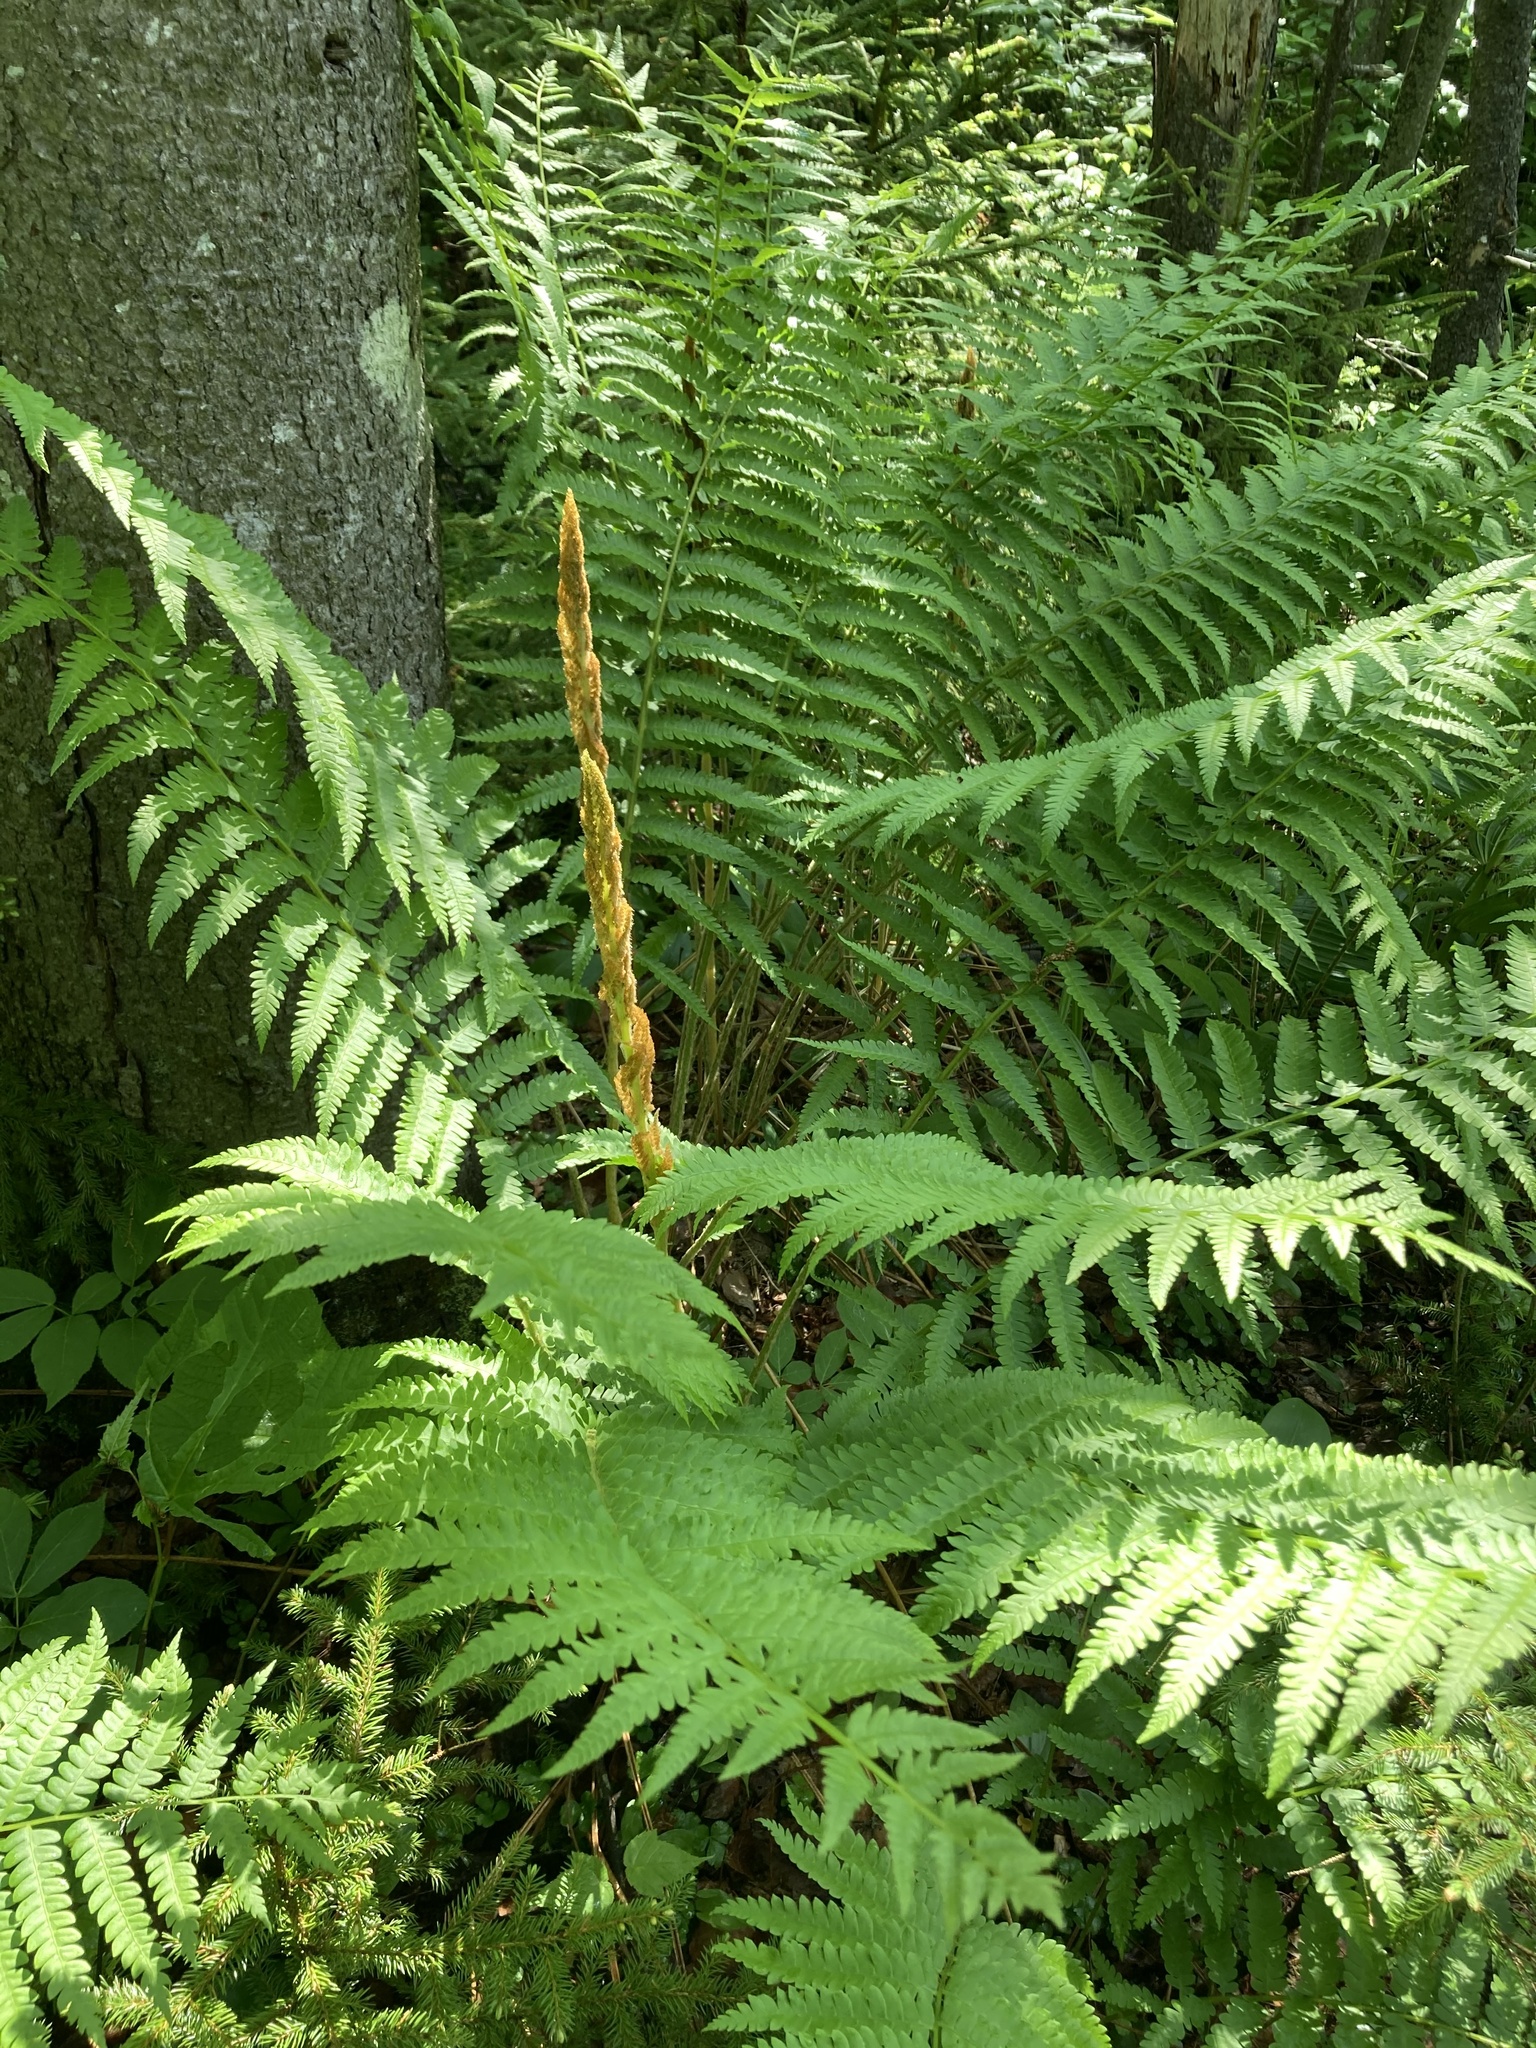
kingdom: Plantae
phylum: Tracheophyta
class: Polypodiopsida
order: Osmundales
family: Osmundaceae
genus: Osmundastrum
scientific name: Osmundastrum cinnamomeum
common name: Cinnamon fern
